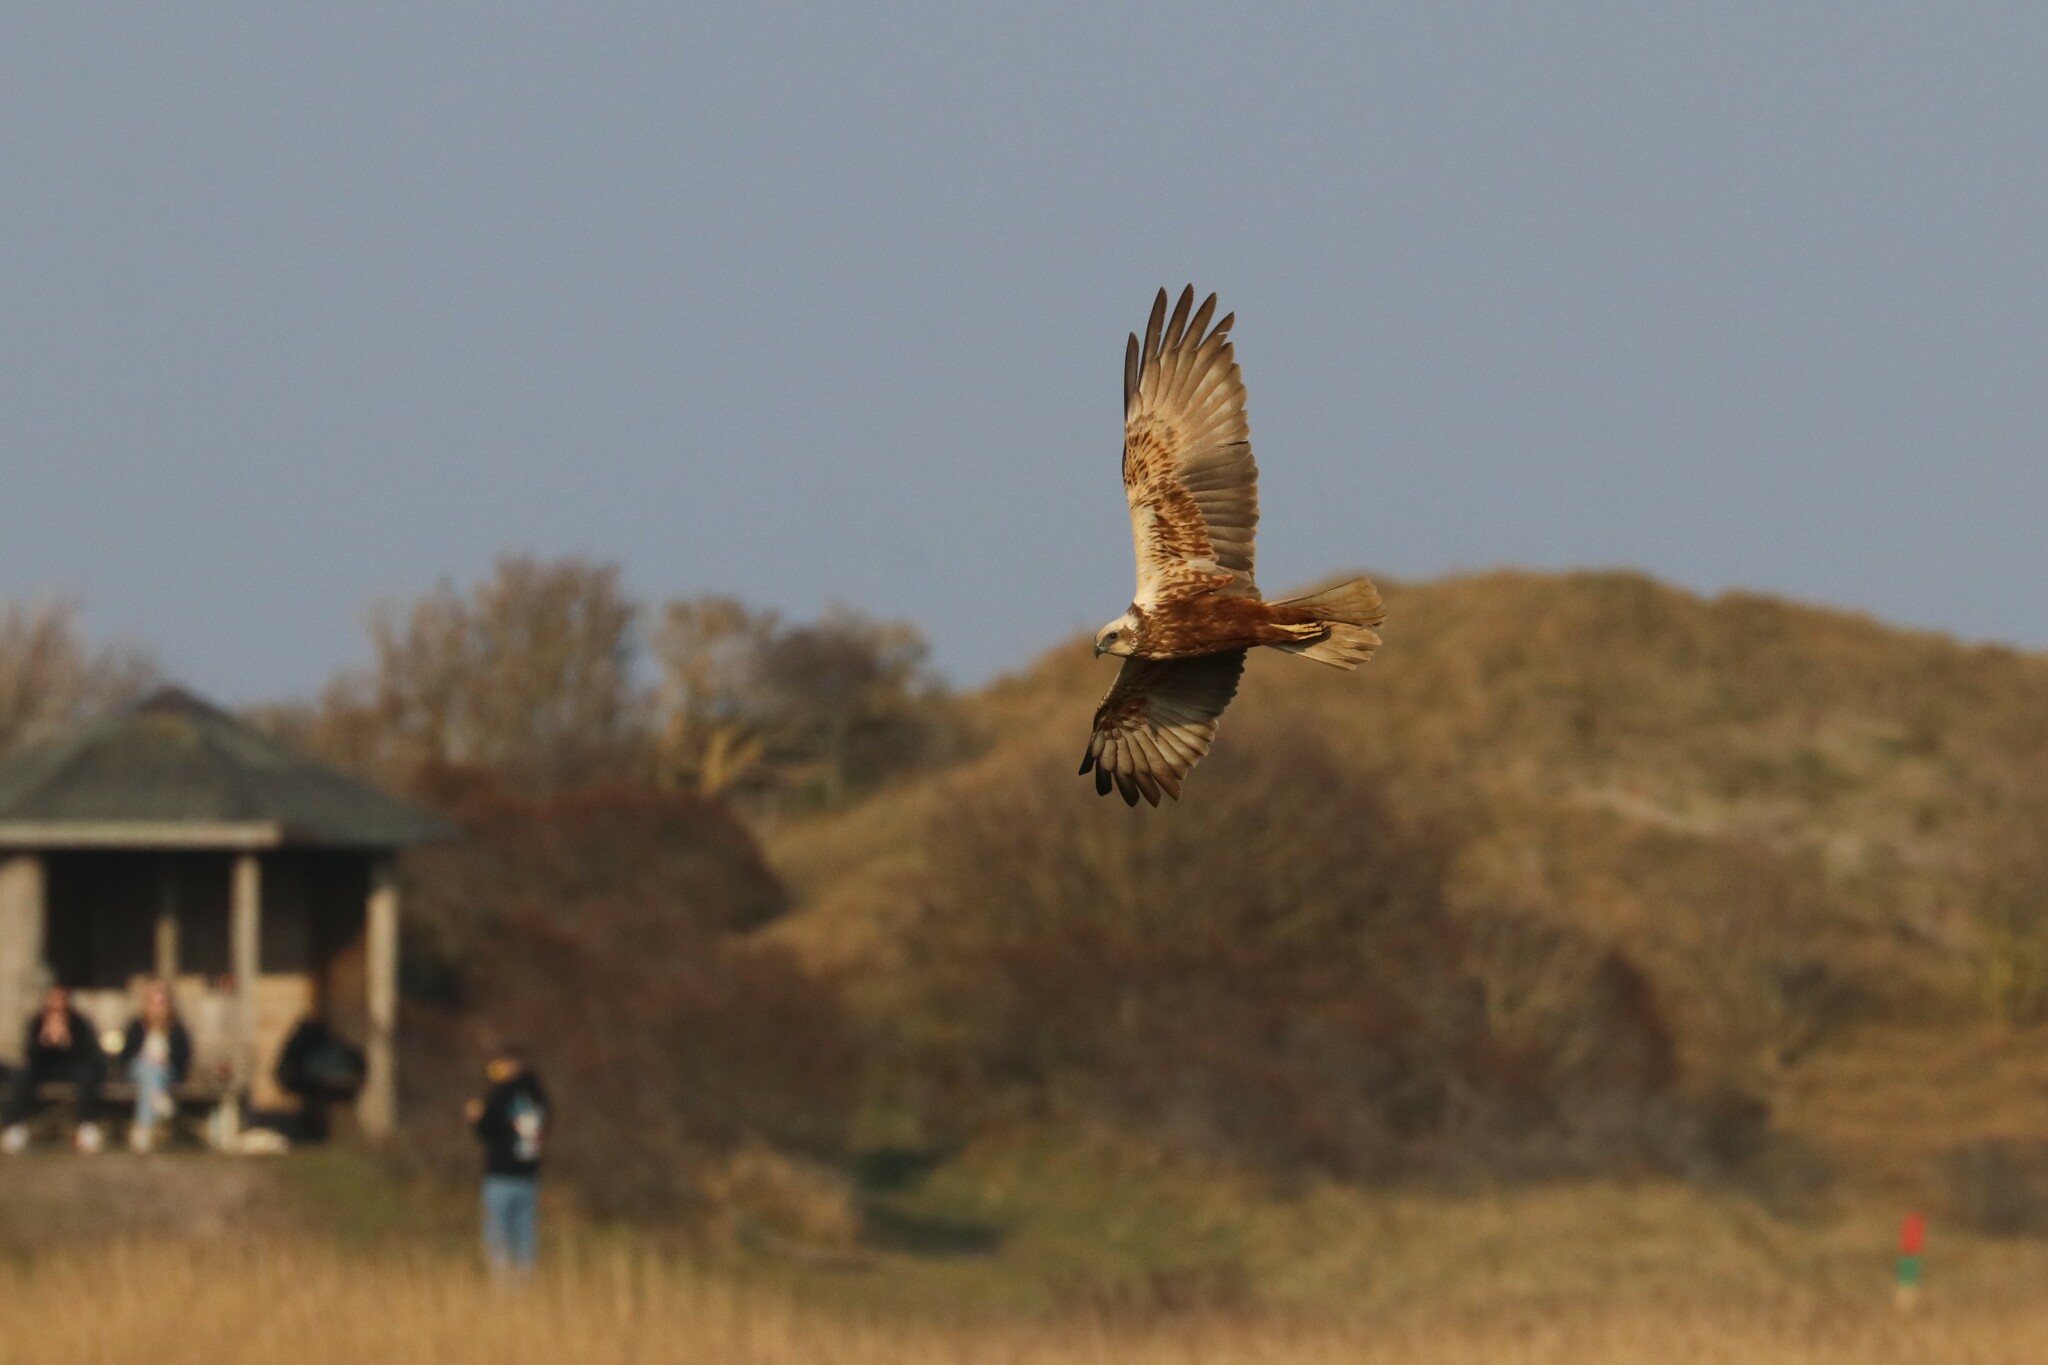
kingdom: Animalia
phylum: Chordata
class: Aves
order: Accipitriformes
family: Accipitridae
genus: Circus
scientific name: Circus aeruginosus
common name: Western marsh harrier
